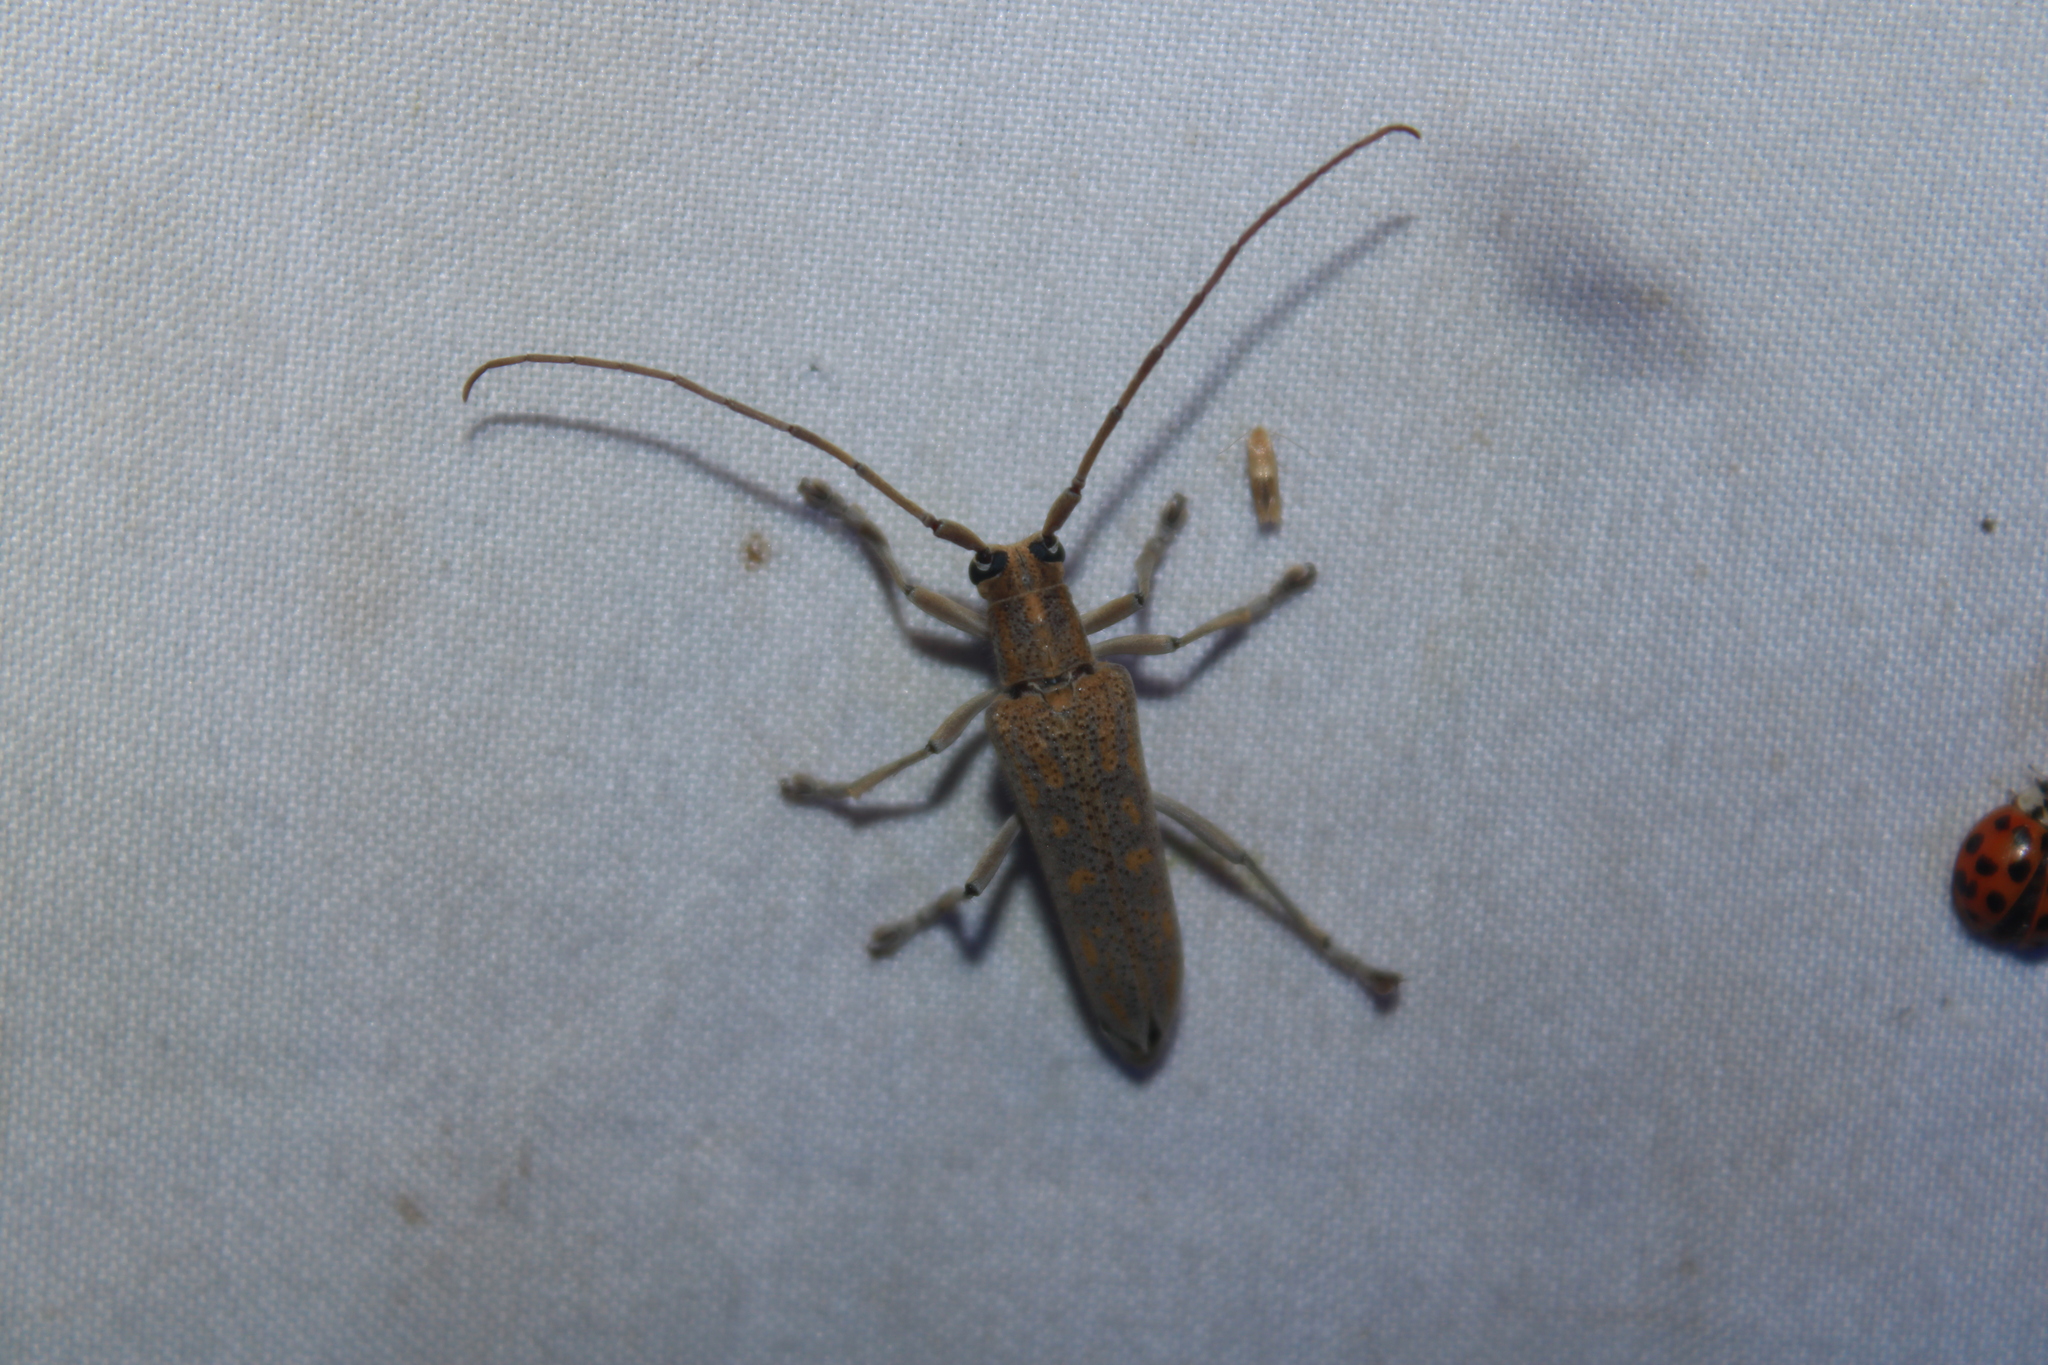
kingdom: Animalia
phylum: Arthropoda
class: Insecta
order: Coleoptera
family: Cerambycidae
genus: Saperda
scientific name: Saperda calcarata
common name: Poplar borer
